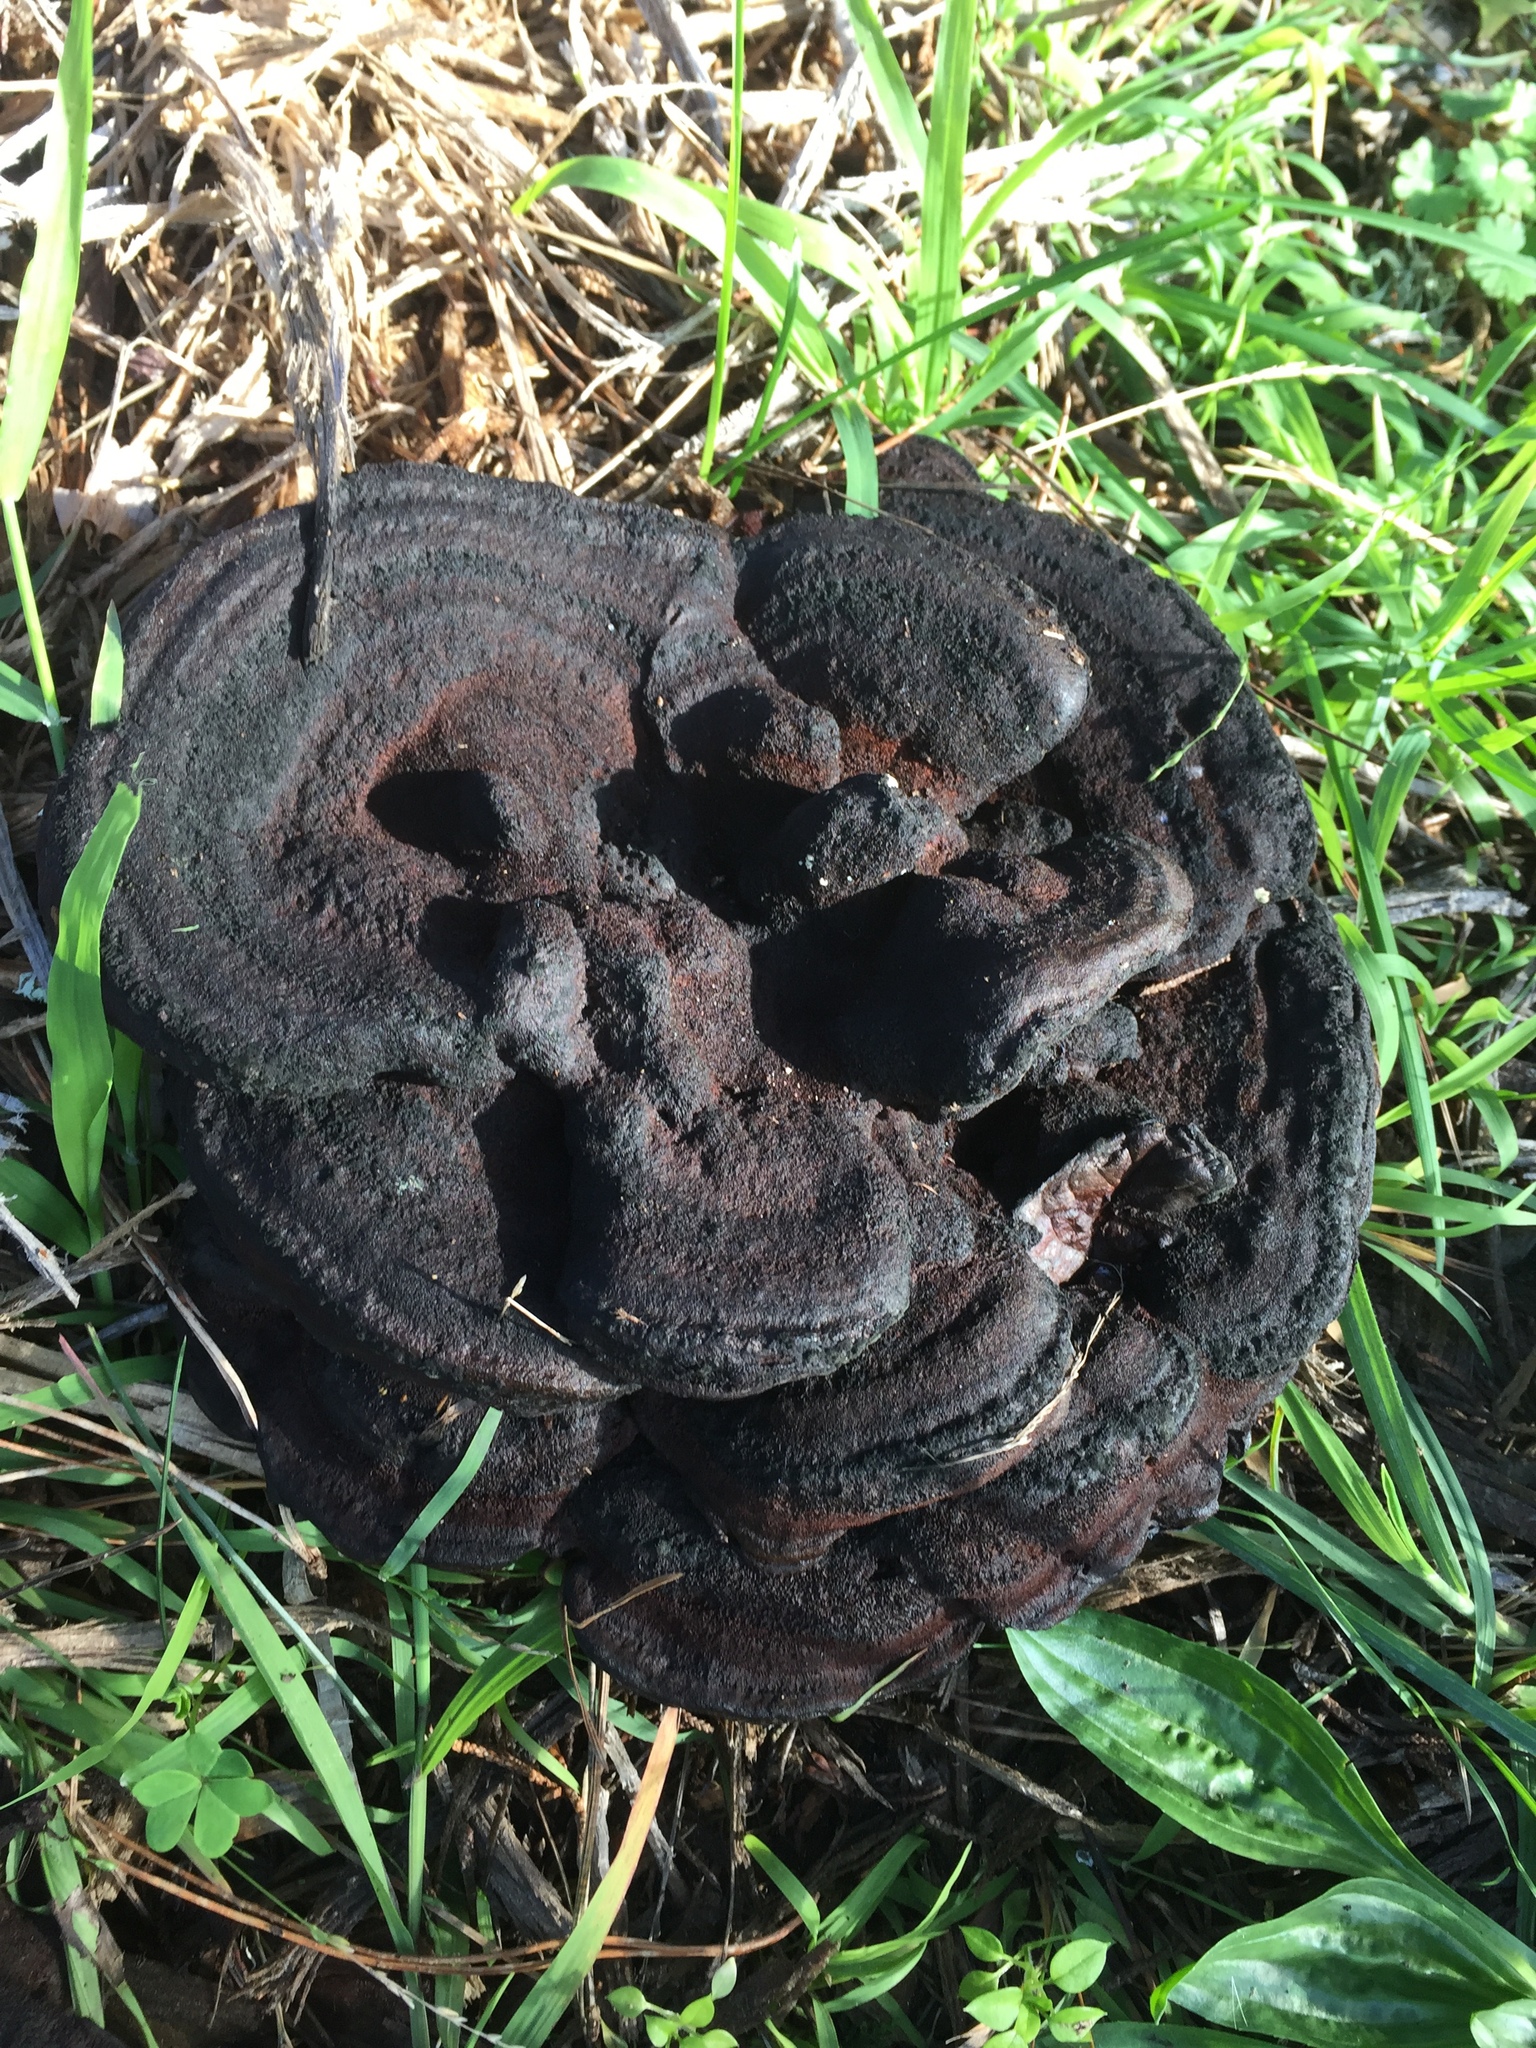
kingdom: Fungi
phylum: Basidiomycota
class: Agaricomycetes
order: Polyporales
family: Laetiporaceae
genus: Phaeolus
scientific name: Phaeolus schweinitzii
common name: Dyer's mazegill
